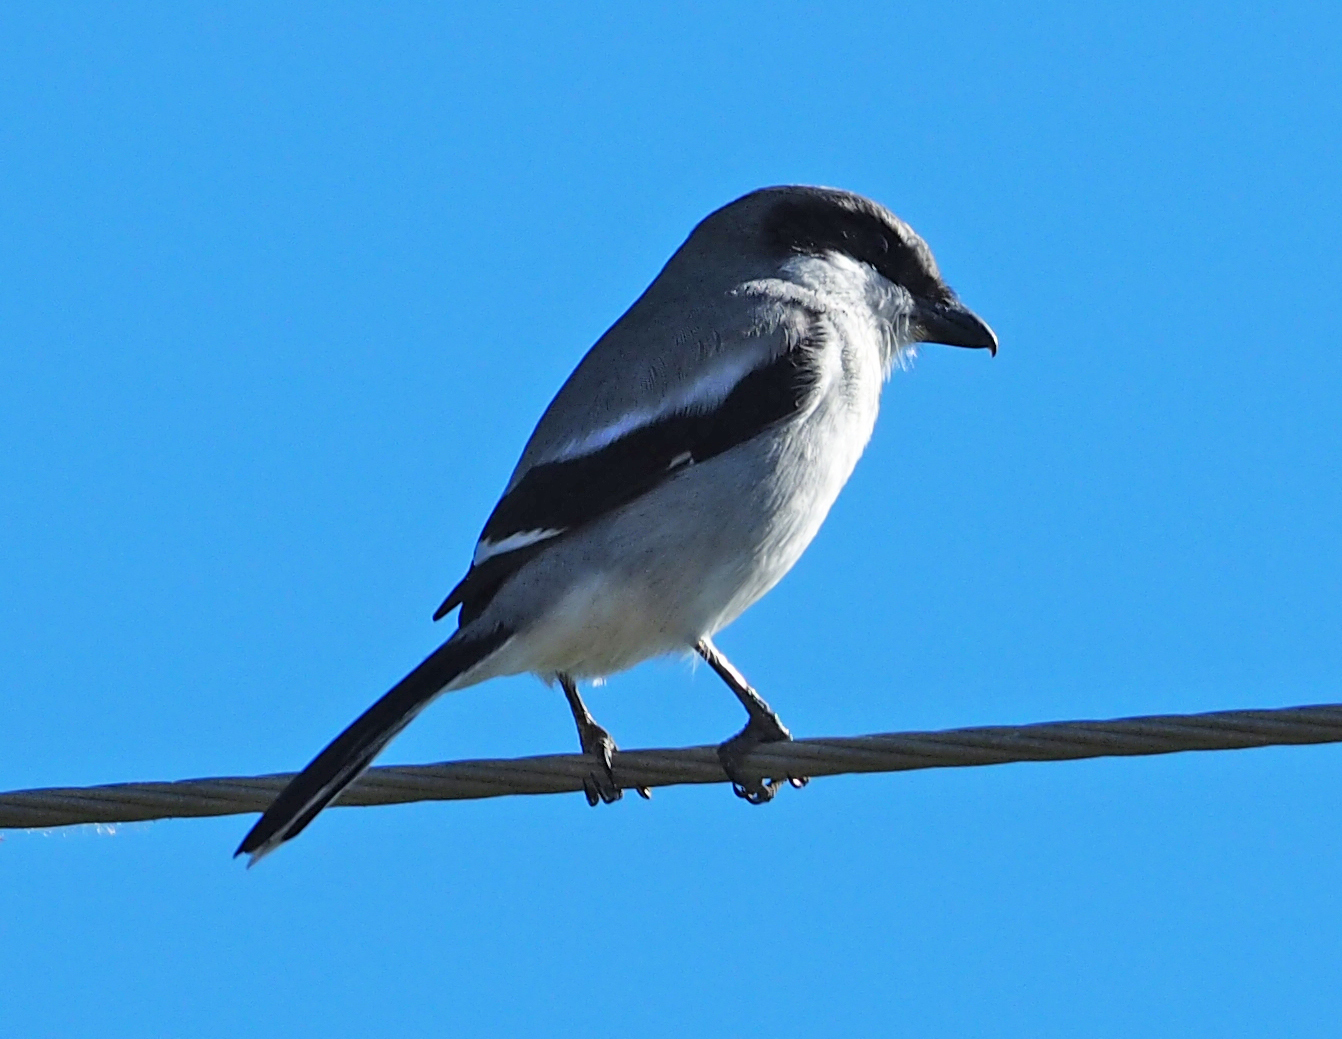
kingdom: Animalia
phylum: Chordata
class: Aves
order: Passeriformes
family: Laniidae
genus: Lanius
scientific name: Lanius ludovicianus
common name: Loggerhead shrike
